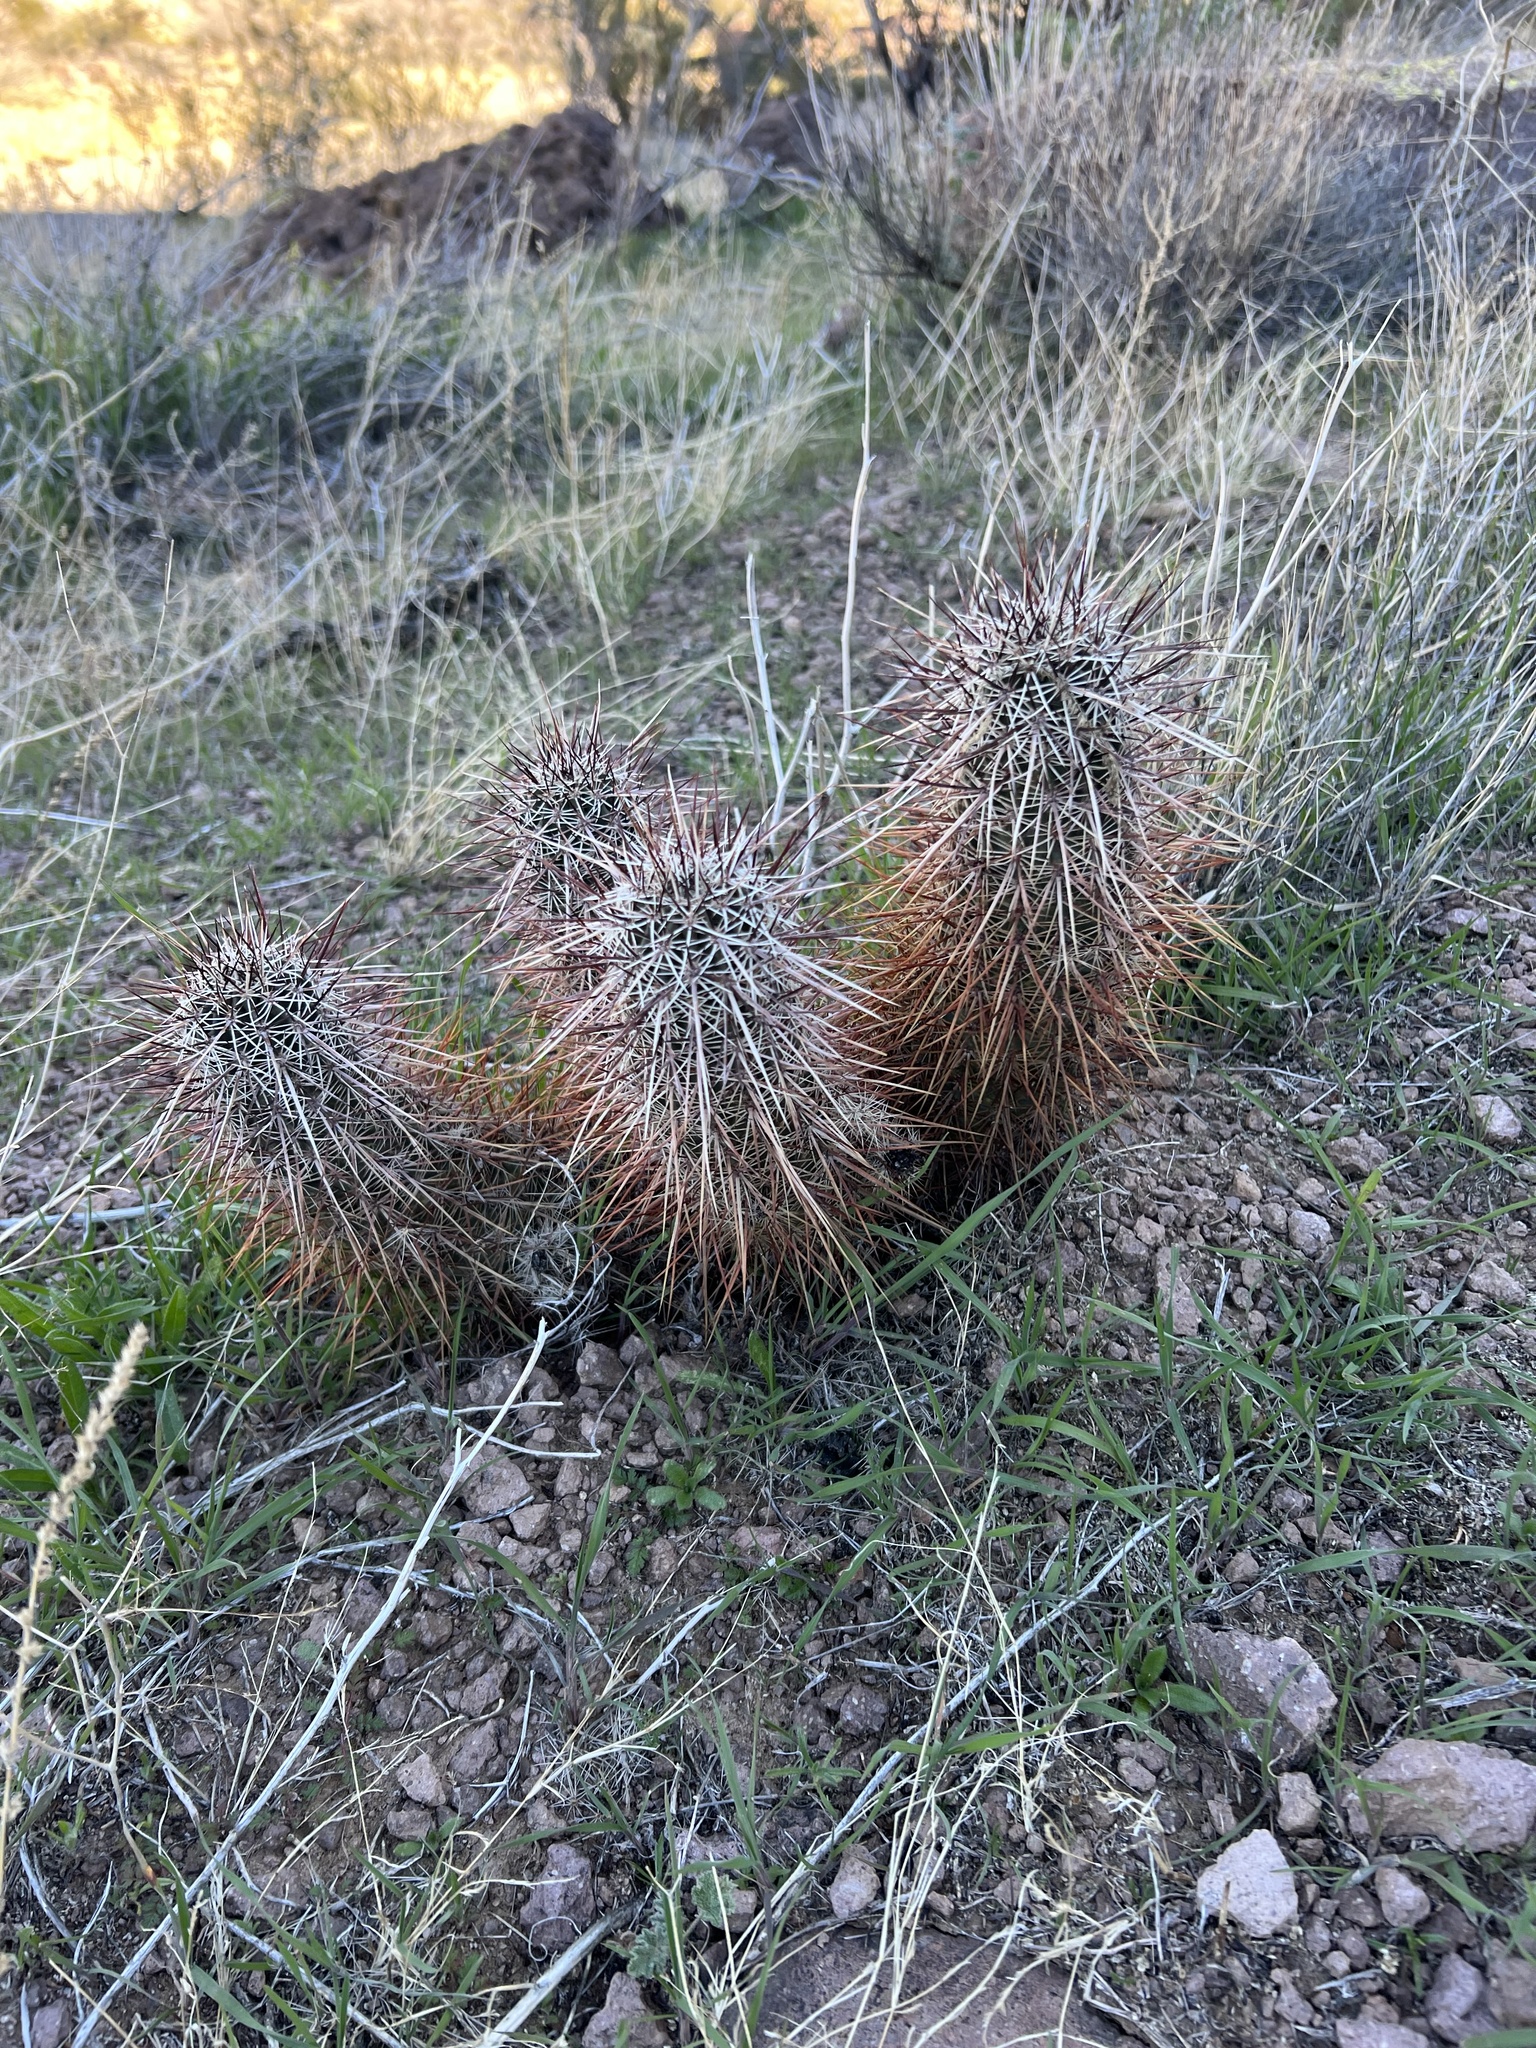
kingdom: Plantae
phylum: Tracheophyta
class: Magnoliopsida
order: Caryophyllales
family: Cactaceae
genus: Echinocereus
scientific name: Echinocereus engelmannii
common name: Engelmann's hedgehog cactus
